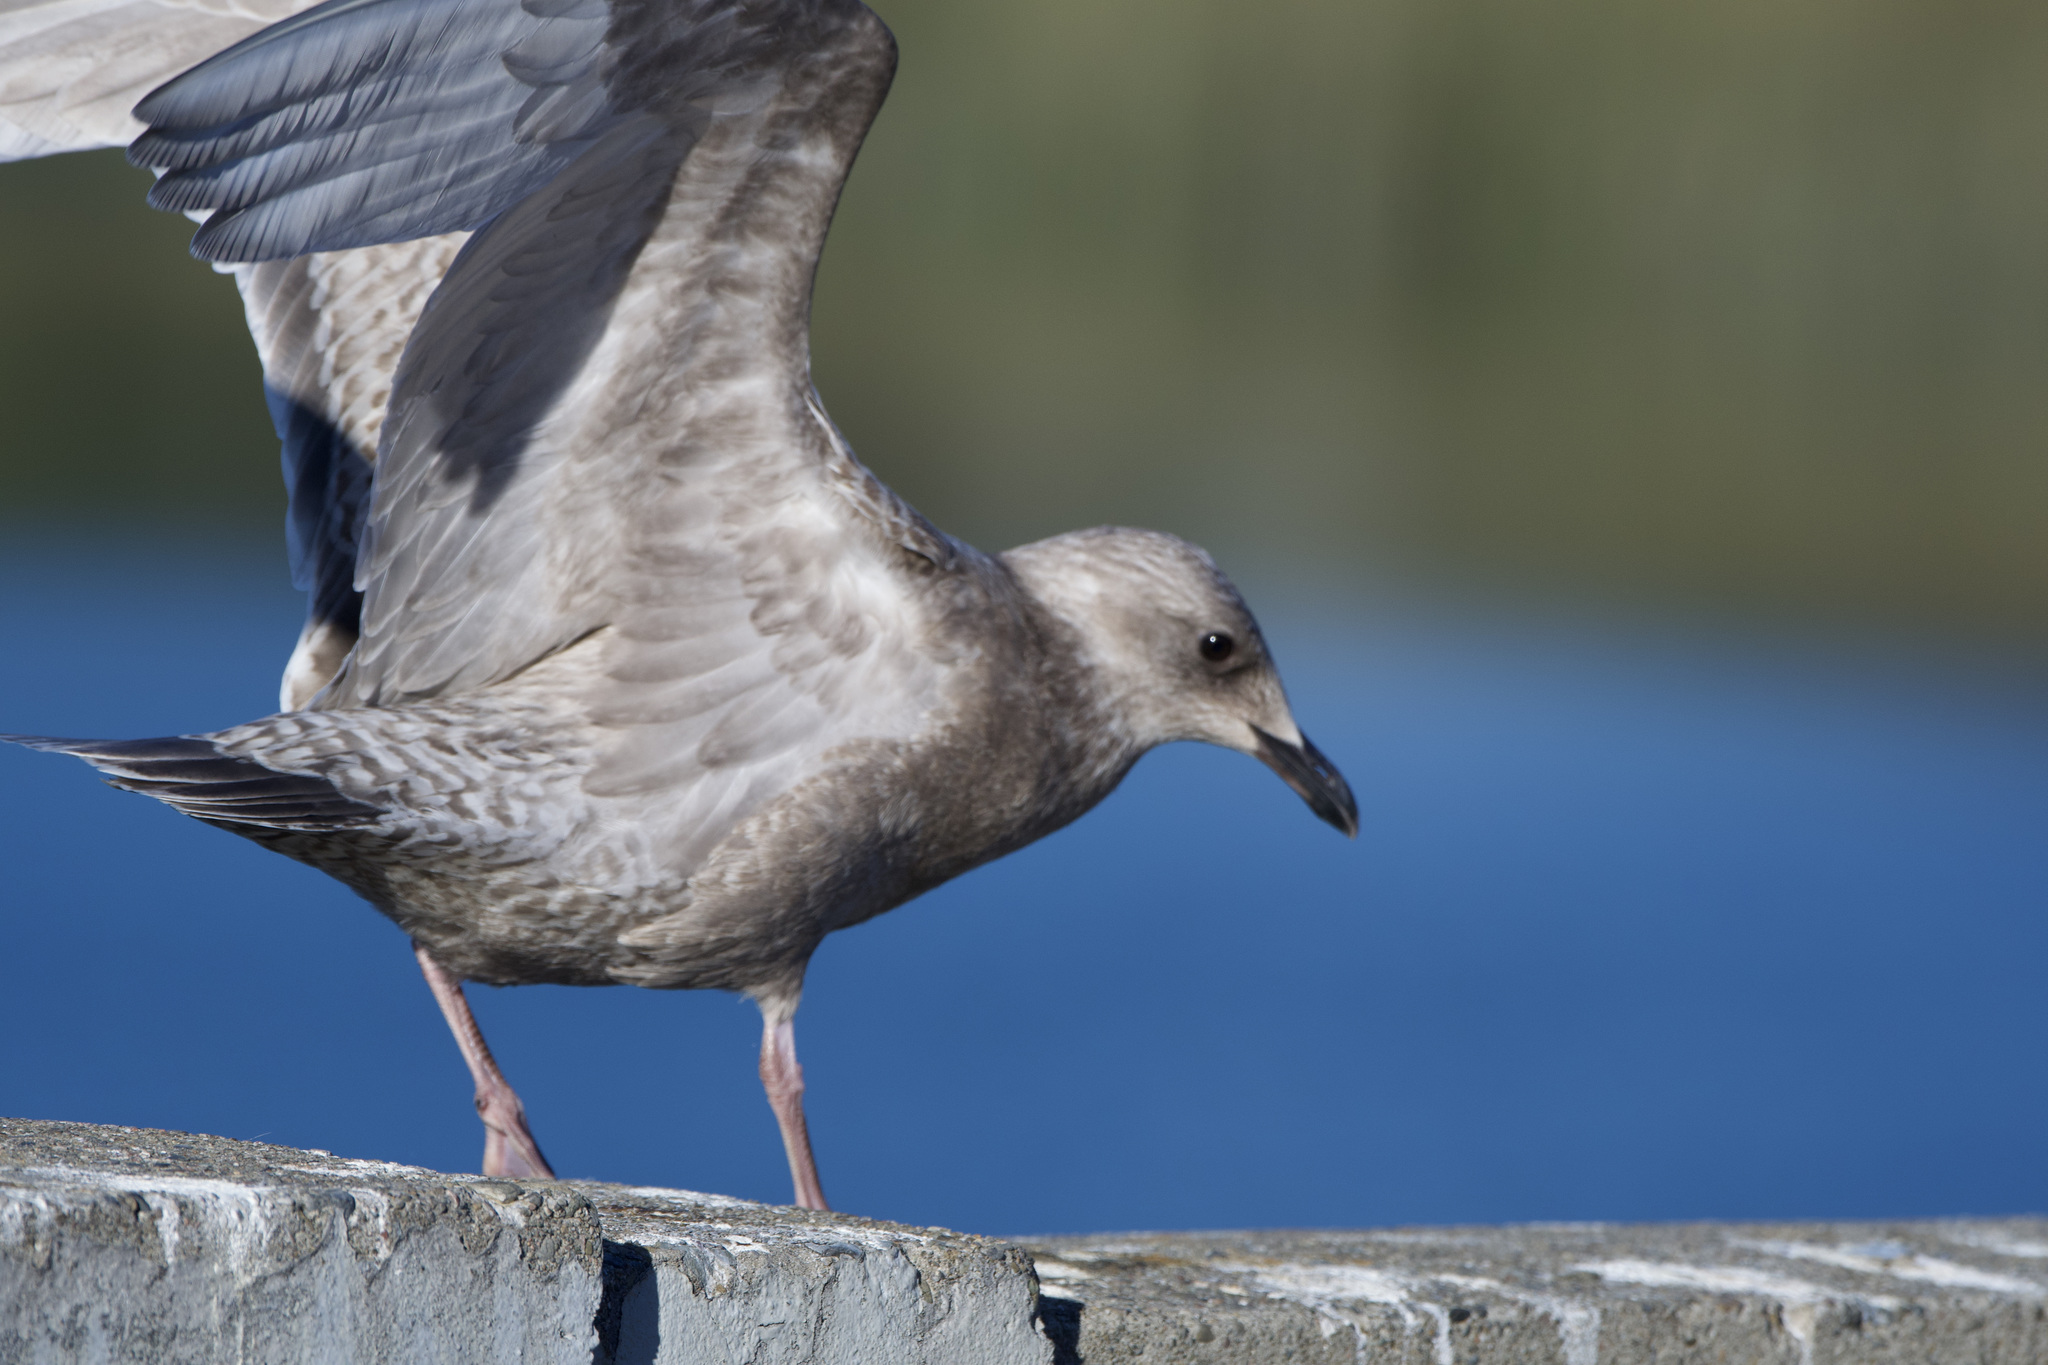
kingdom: Animalia
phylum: Chordata
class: Aves
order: Charadriiformes
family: Laridae
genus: Larus
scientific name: Larus glaucoides
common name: Iceland gull
